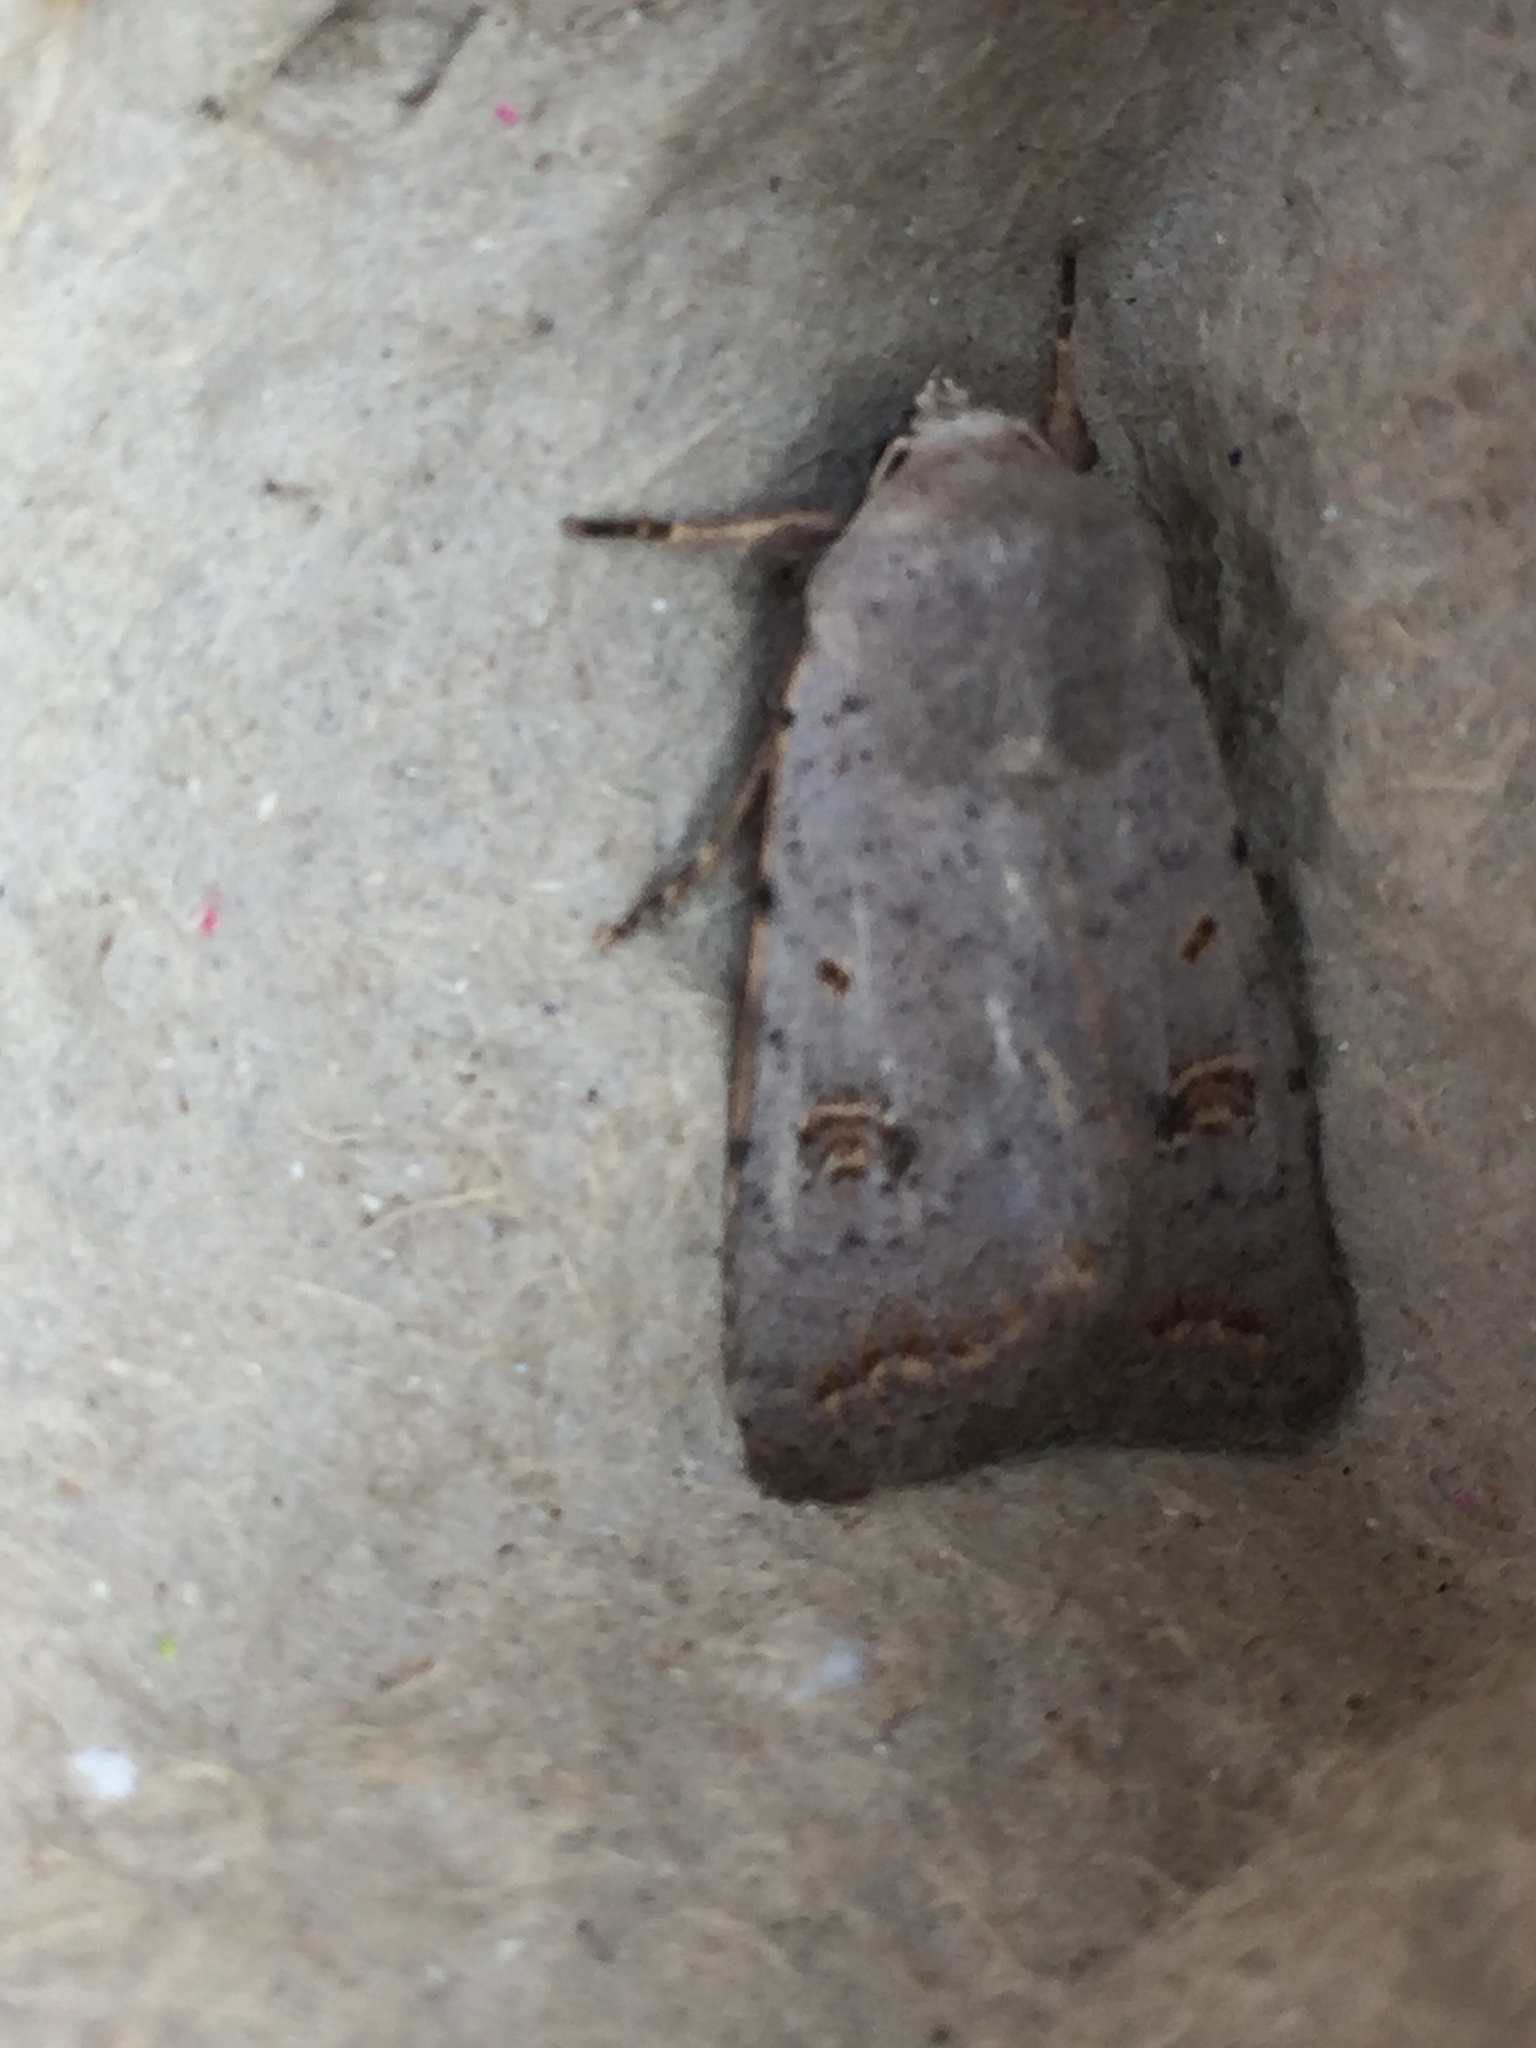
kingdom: Animalia
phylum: Arthropoda
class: Insecta
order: Lepidoptera
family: Noctuidae
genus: Caradrina
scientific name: Caradrina proxima
